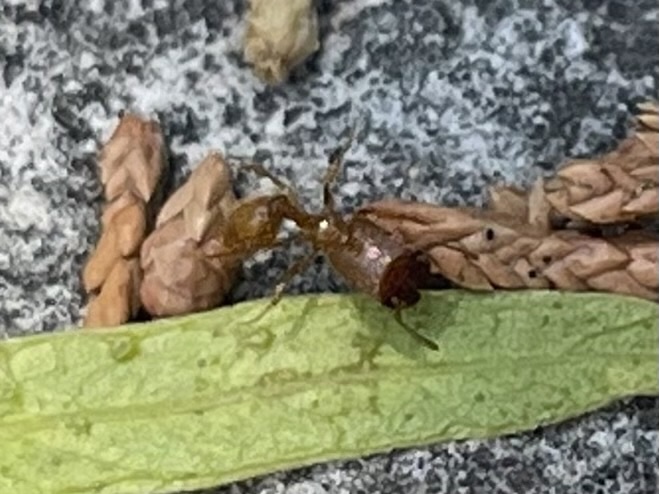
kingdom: Animalia
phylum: Arthropoda
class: Insecta
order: Hymenoptera
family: Formicidae
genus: Pheidole
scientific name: Pheidole pelor
